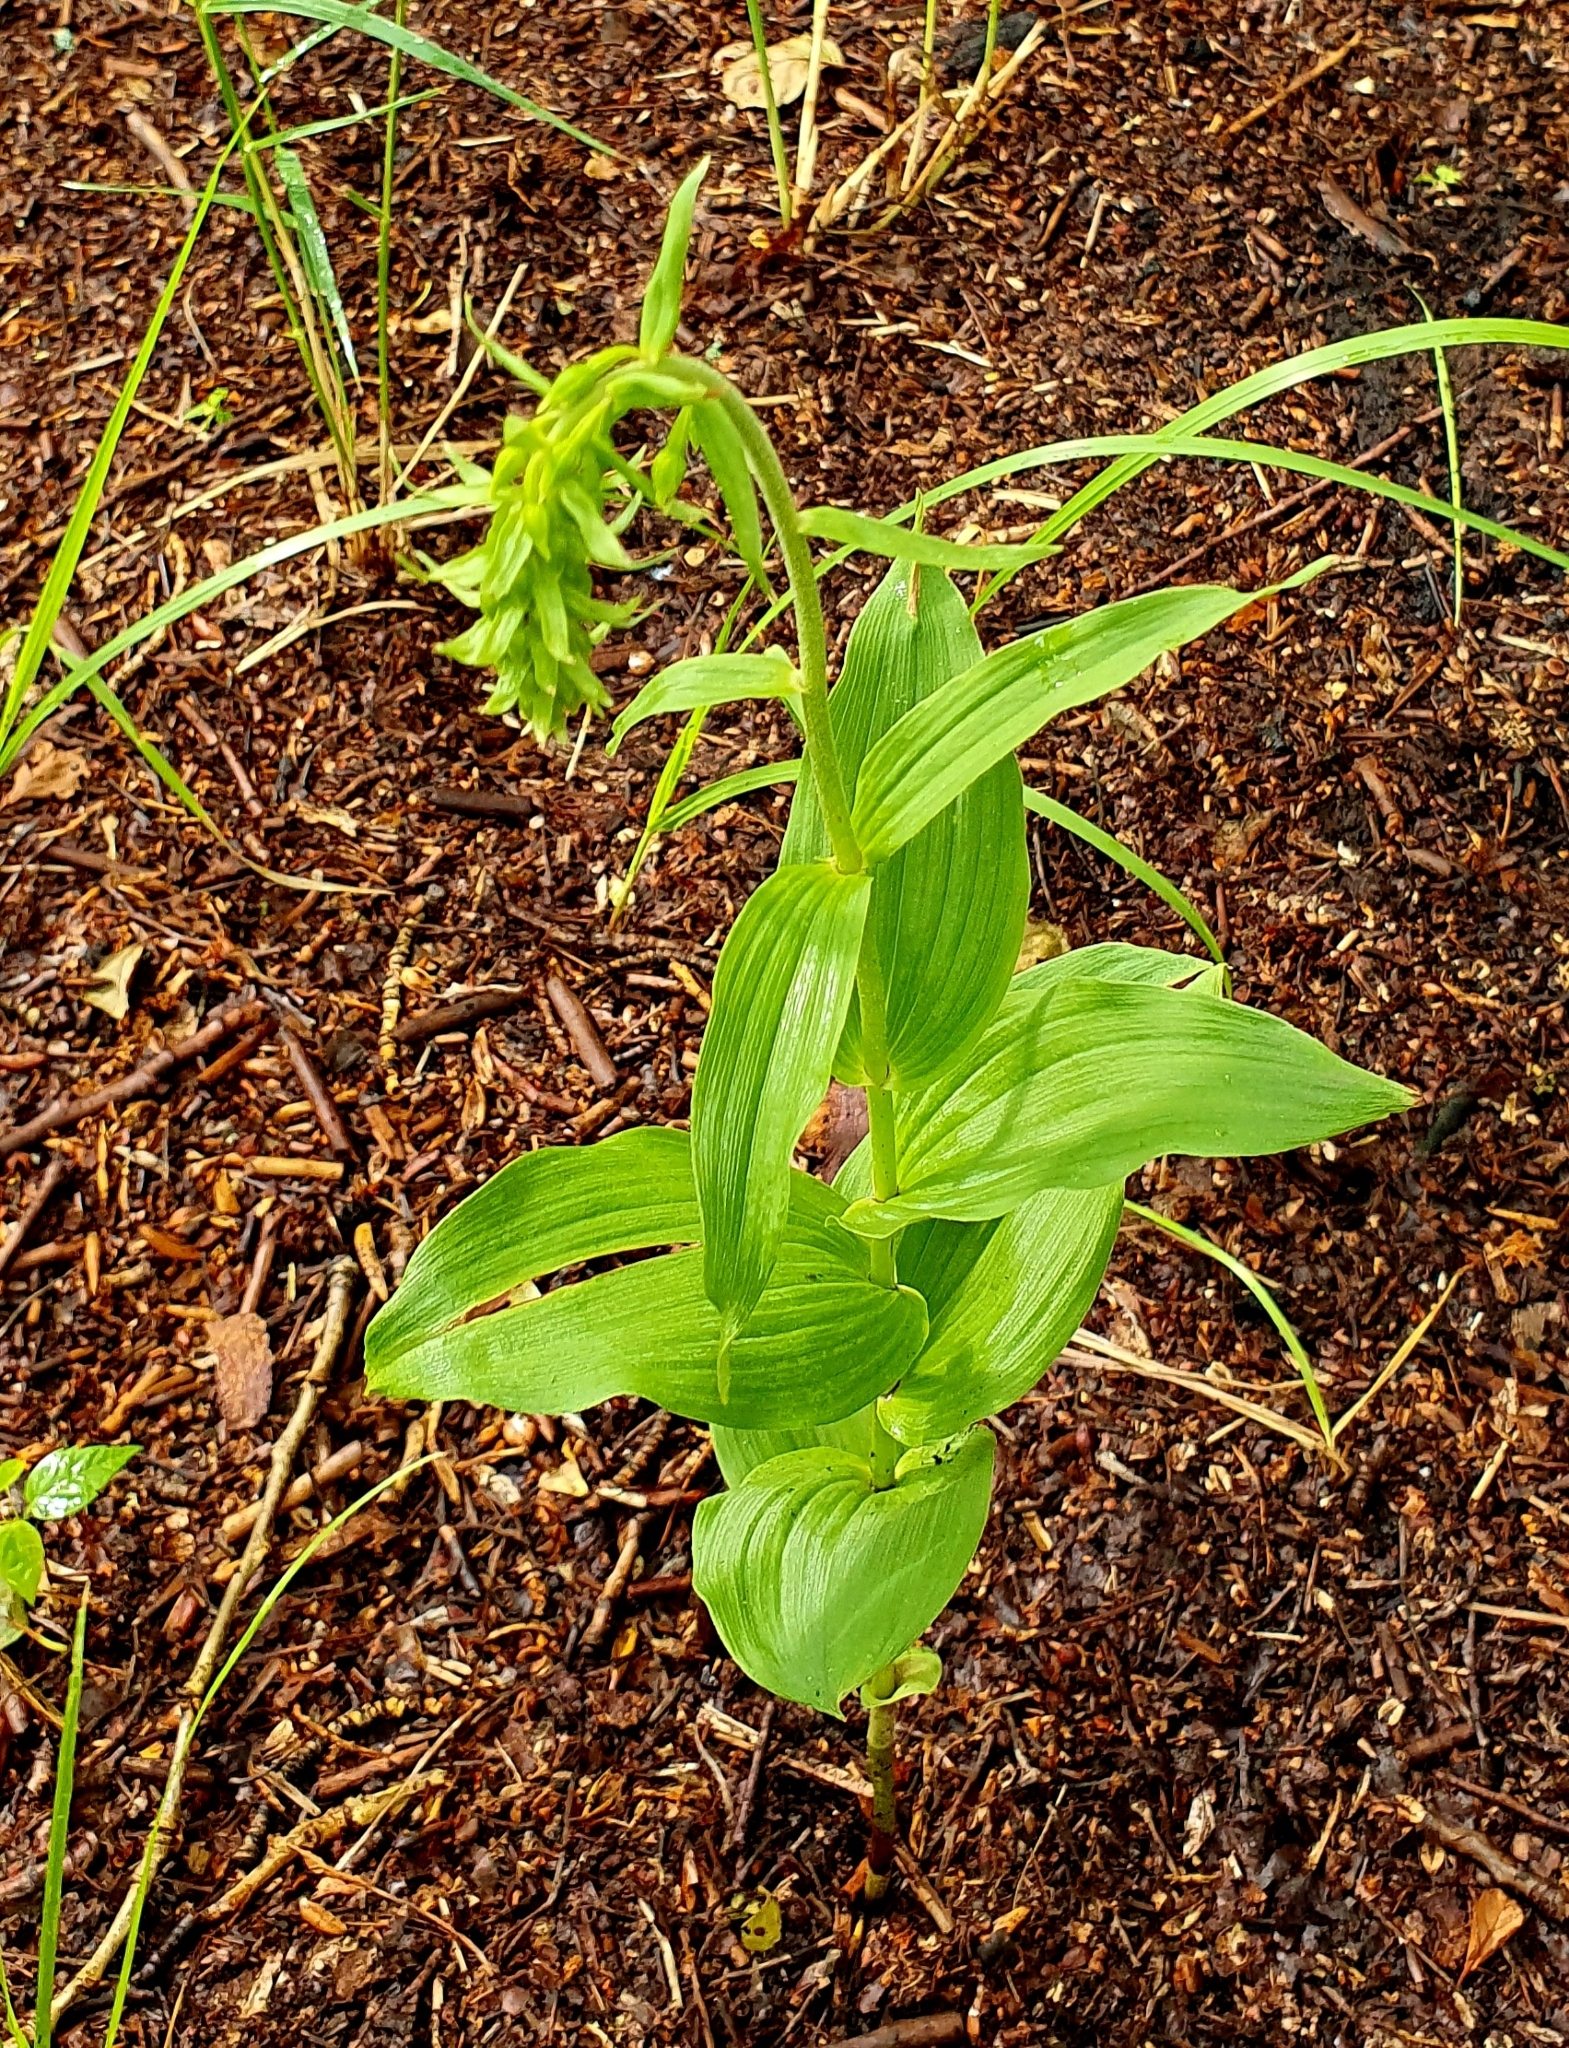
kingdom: Plantae
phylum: Tracheophyta
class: Liliopsida
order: Asparagales
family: Orchidaceae
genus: Epipactis
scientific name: Epipactis helleborine
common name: Broad-leaved helleborine
